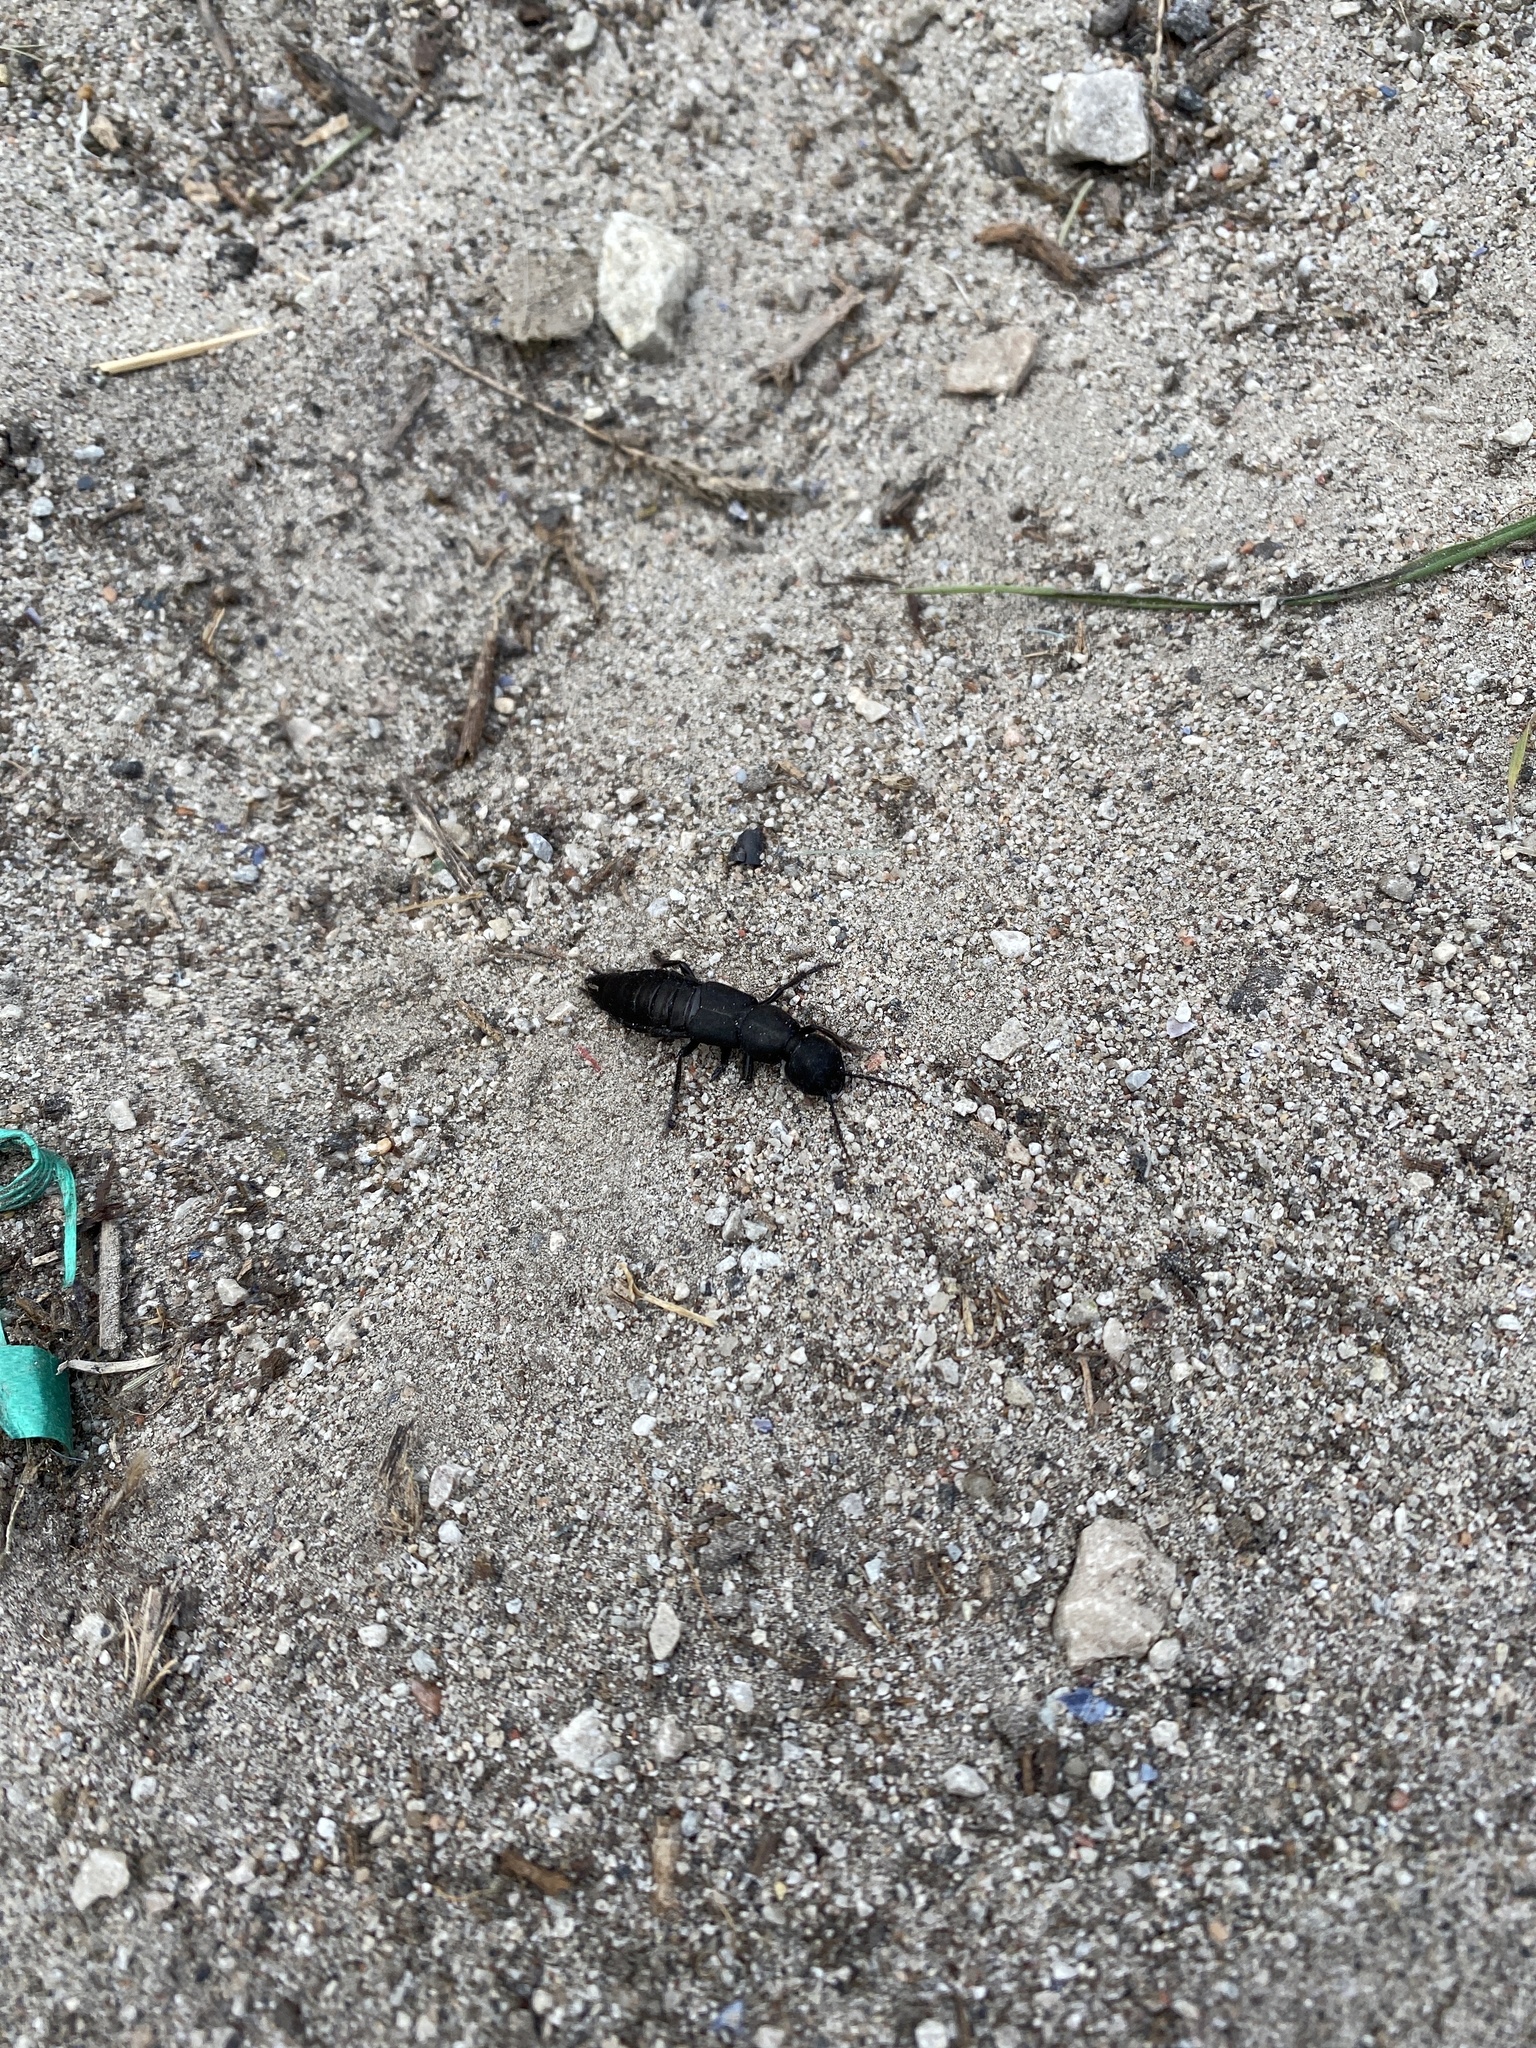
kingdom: Animalia
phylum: Arthropoda
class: Insecta
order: Coleoptera
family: Staphylinidae
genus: Ocypus
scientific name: Ocypus olens
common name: Devil's coach-horse
